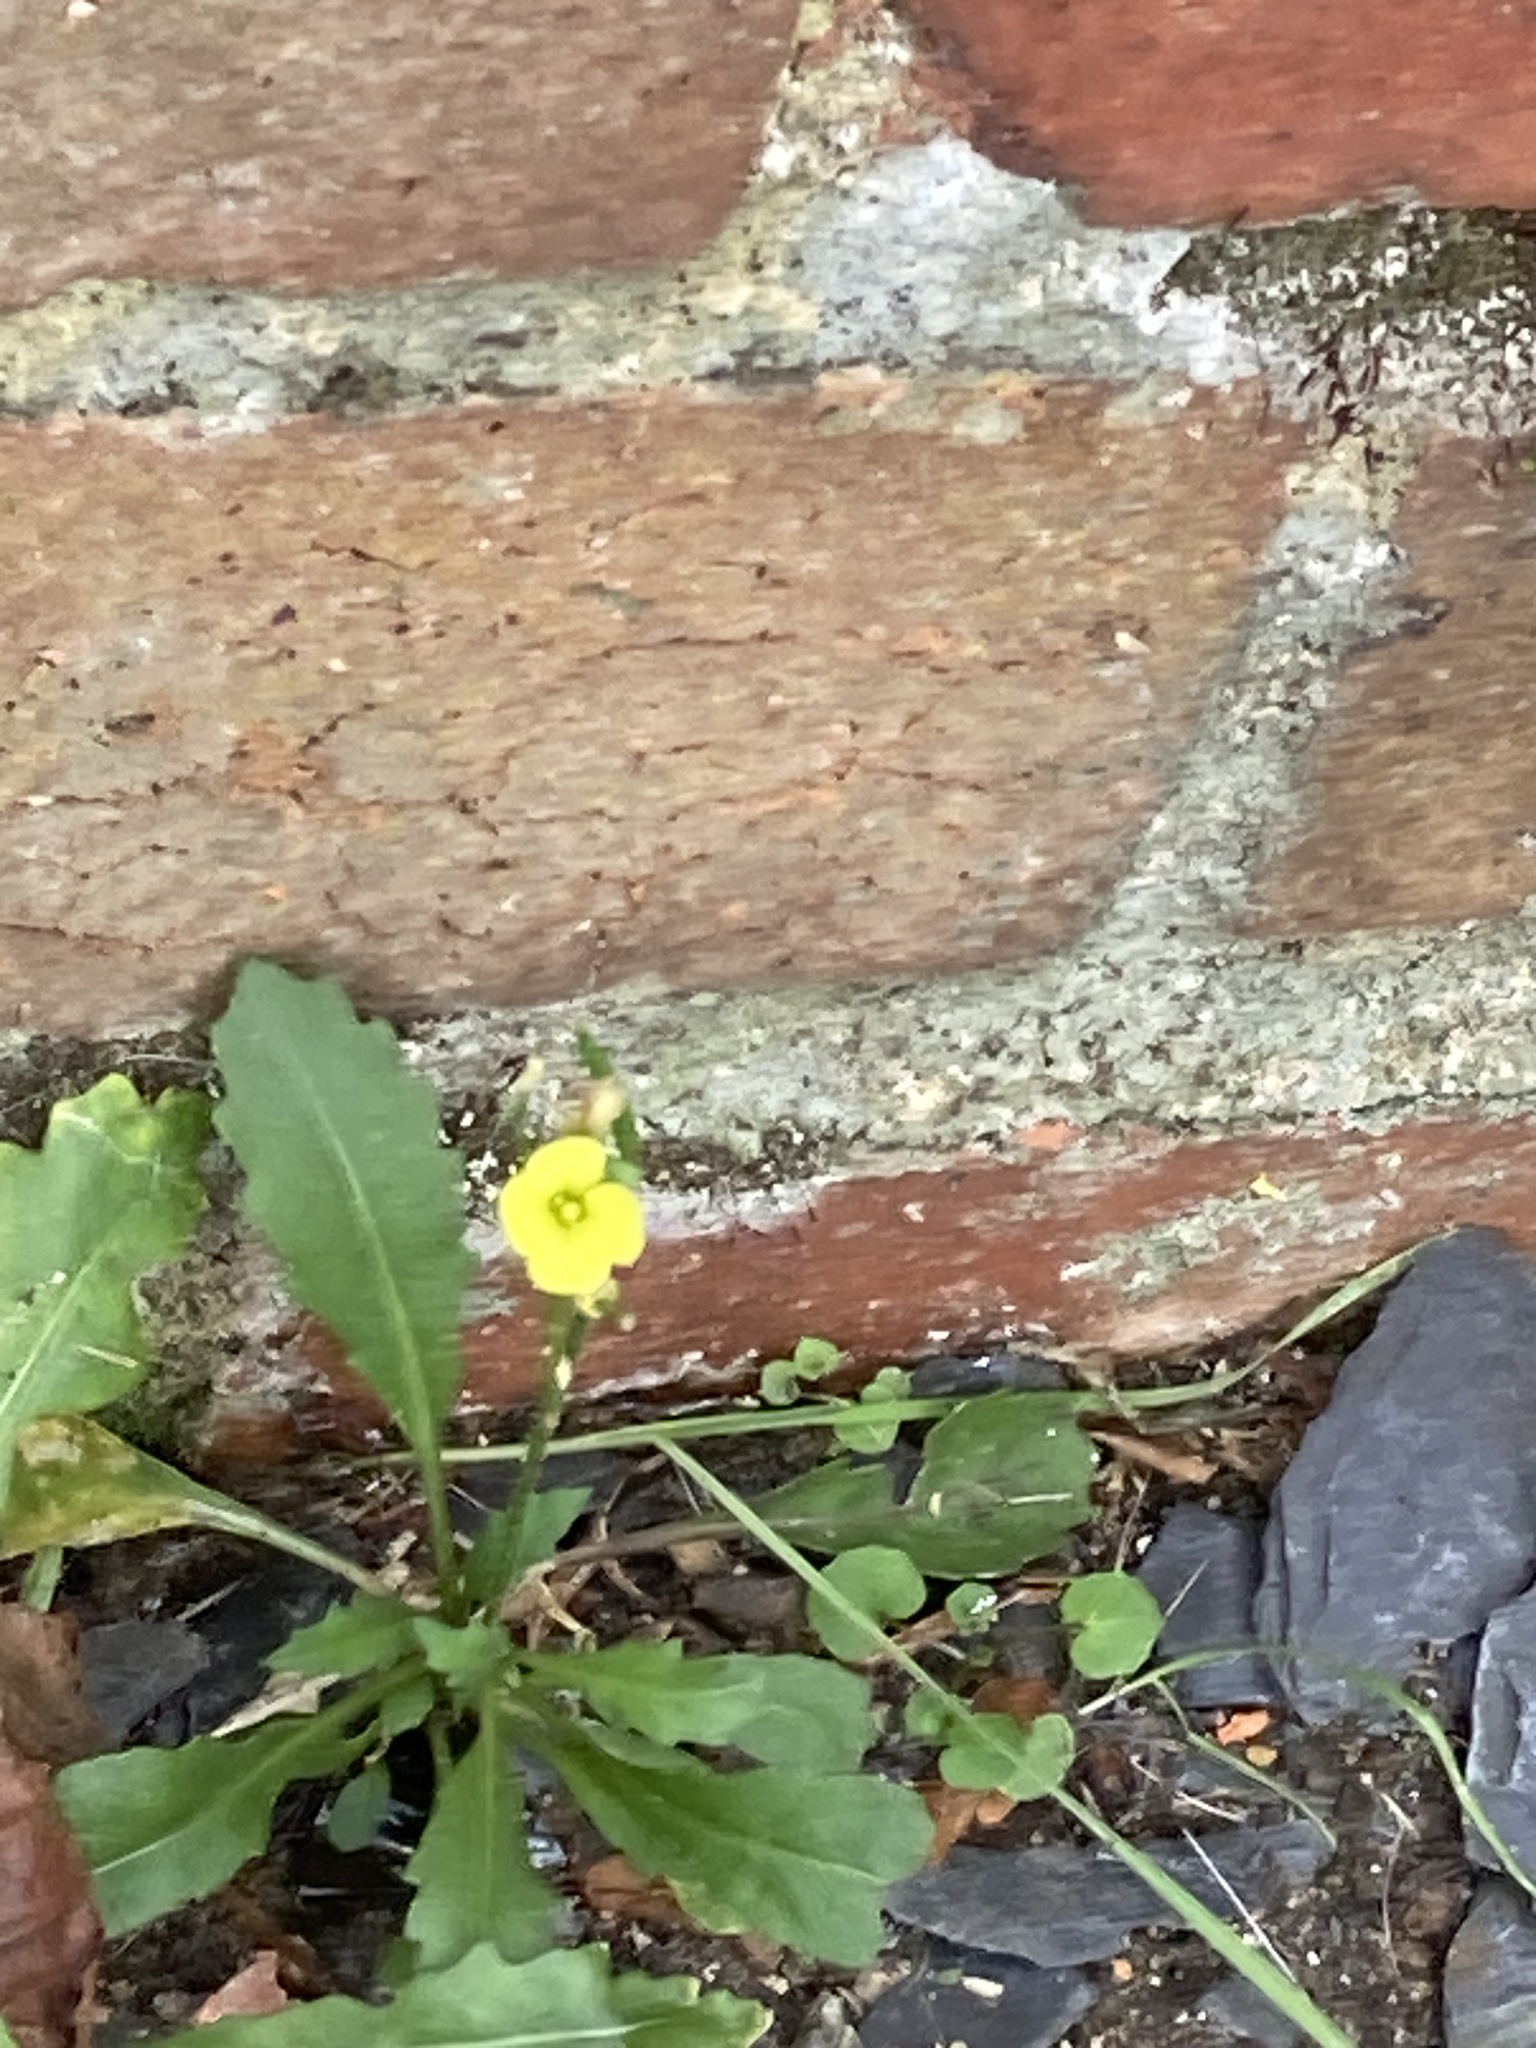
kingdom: Plantae
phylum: Tracheophyta
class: Magnoliopsida
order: Brassicales
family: Brassicaceae
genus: Diplotaxis
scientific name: Diplotaxis muralis
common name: Annual wall-rocket
